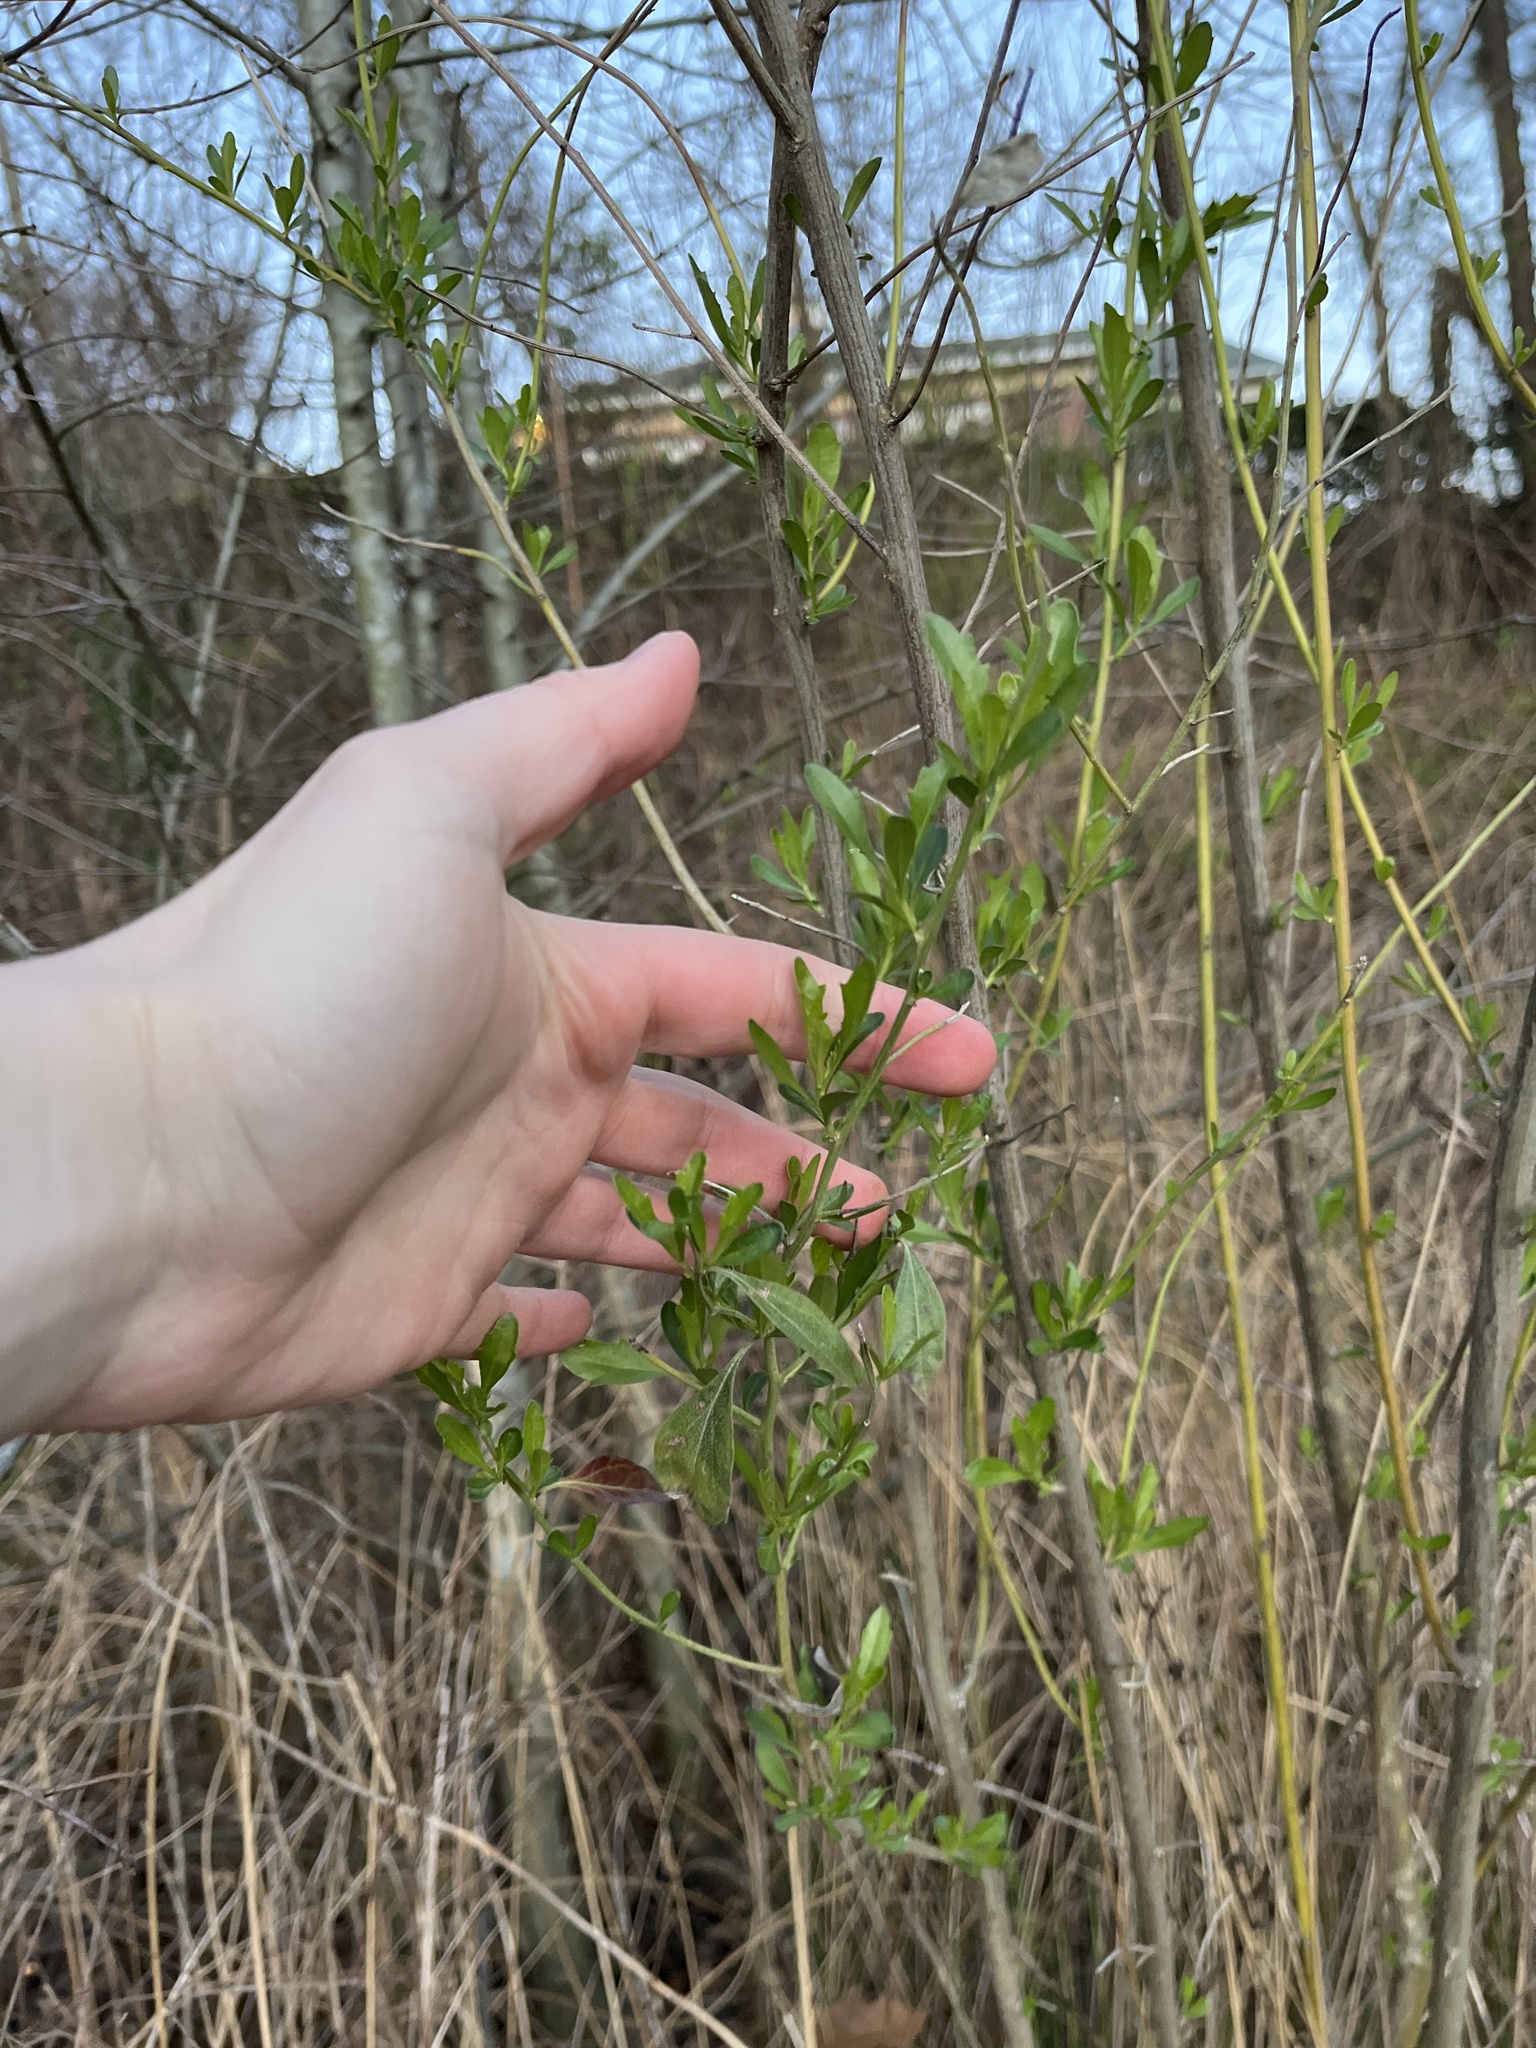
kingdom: Plantae
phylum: Tracheophyta
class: Magnoliopsida
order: Asterales
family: Asteraceae
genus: Baccharis
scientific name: Baccharis halimifolia
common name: Eastern baccharis
